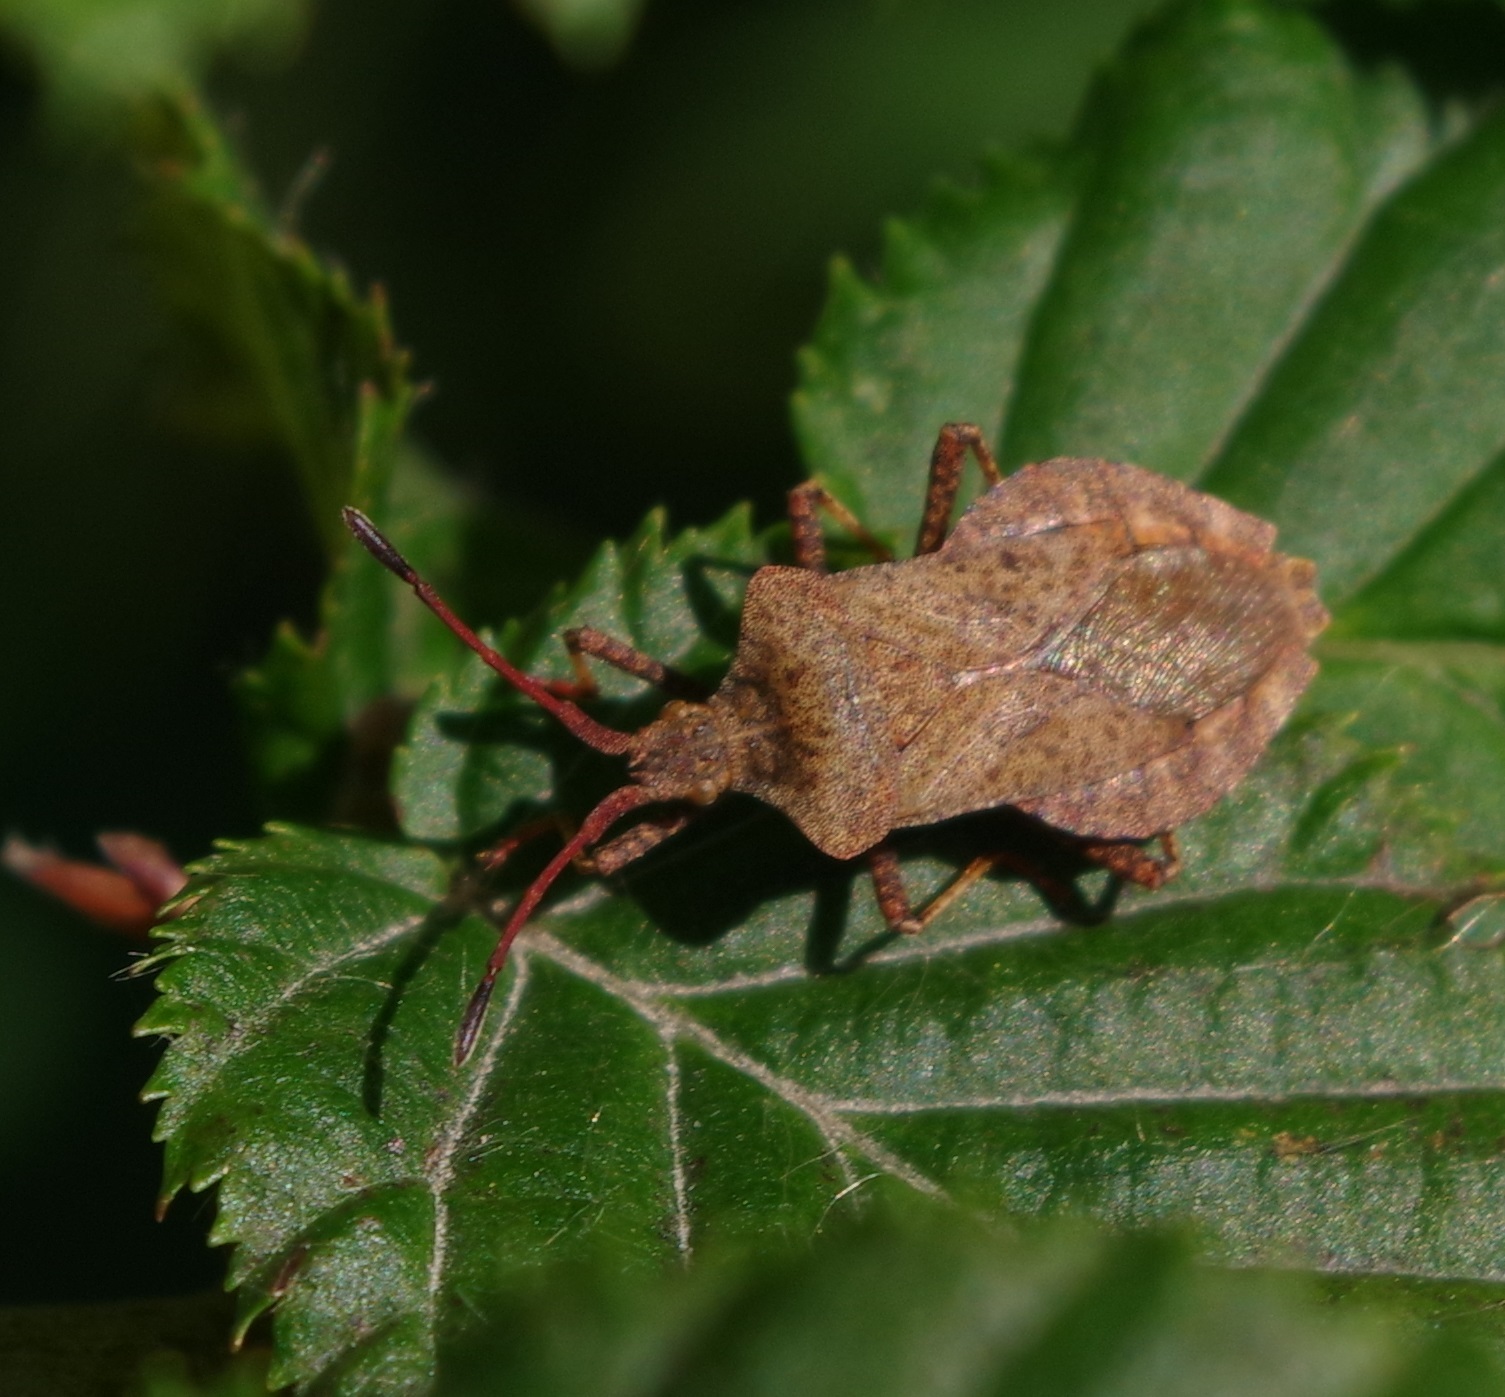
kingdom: Animalia
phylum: Arthropoda
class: Insecta
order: Hemiptera
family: Coreidae
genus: Coreus
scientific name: Coreus marginatus
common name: Dock bug
